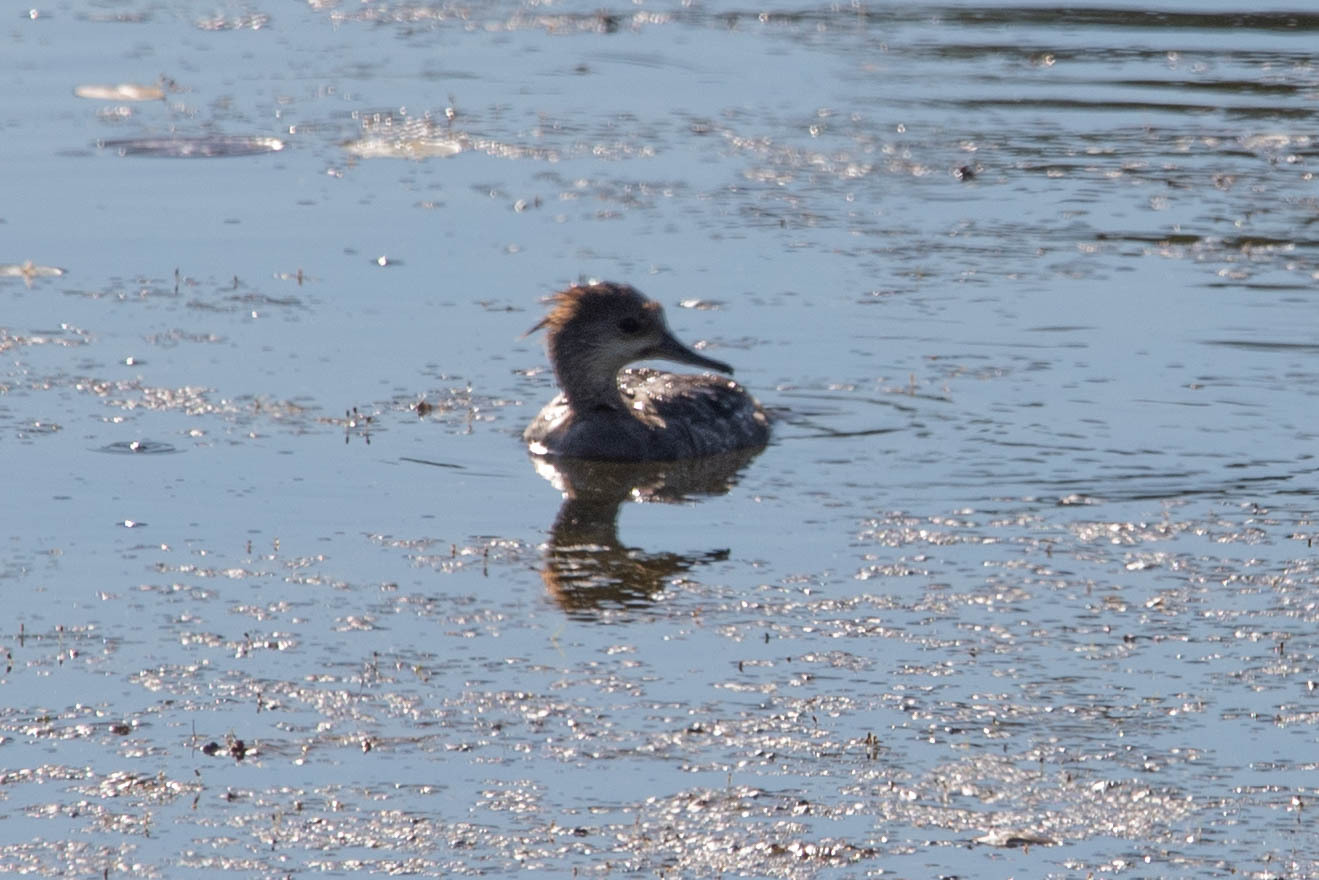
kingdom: Animalia
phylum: Chordata
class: Aves
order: Anseriformes
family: Anatidae
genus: Lophodytes
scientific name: Lophodytes cucullatus
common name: Hooded merganser
